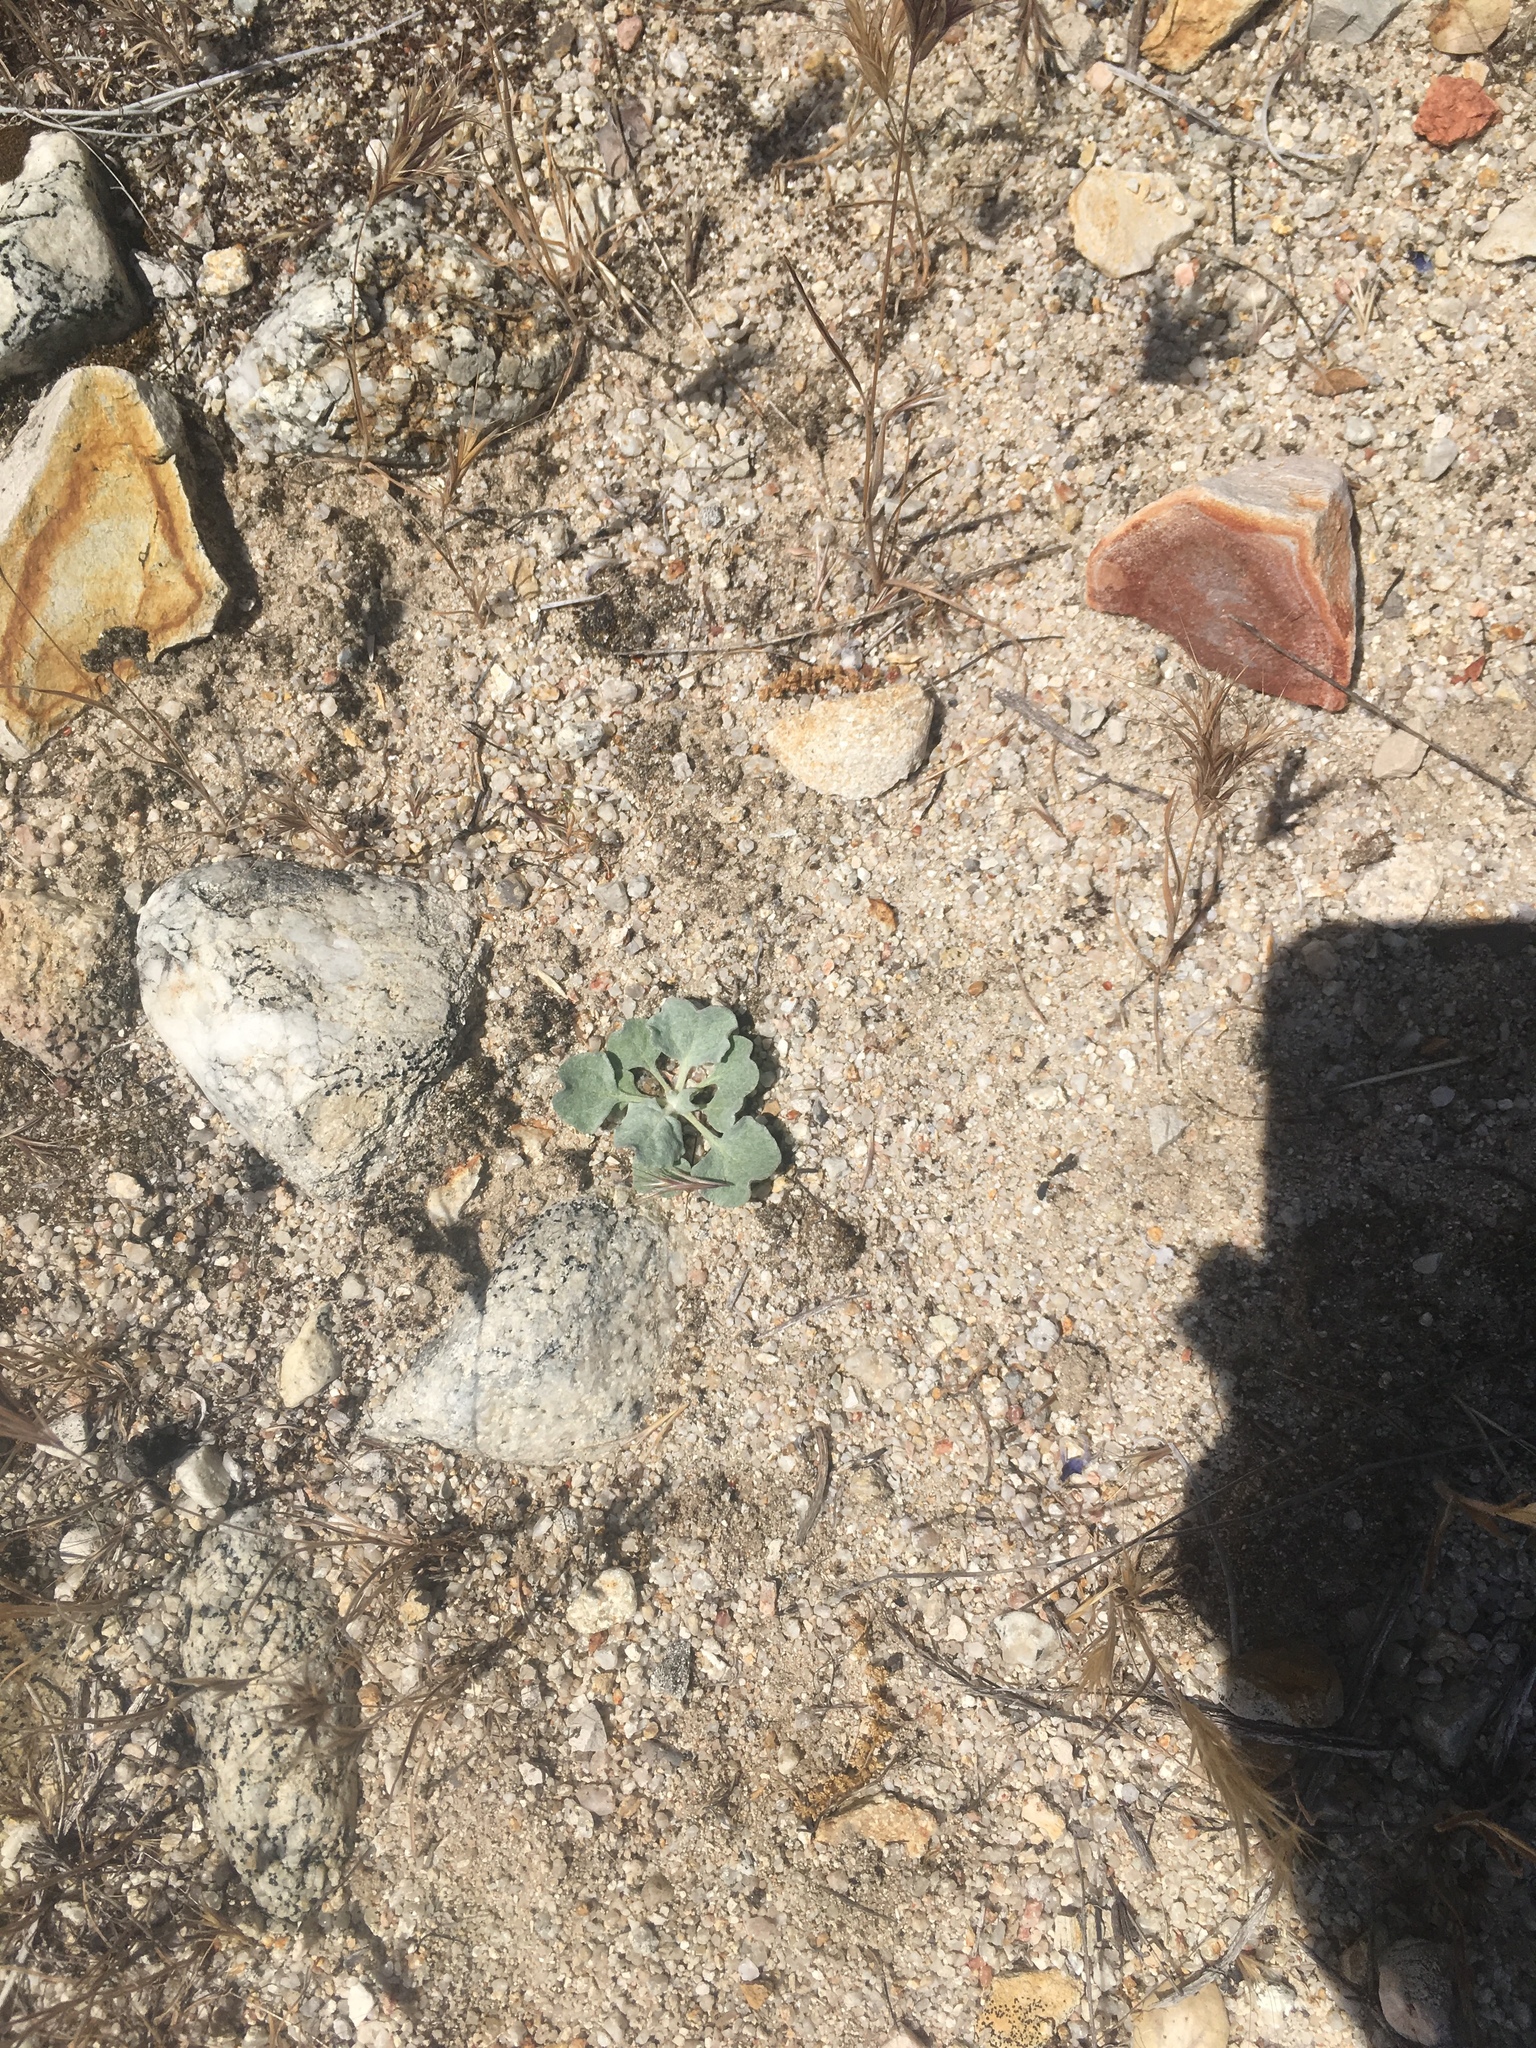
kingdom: Plantae
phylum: Tracheophyta
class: Magnoliopsida
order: Caryophyllales
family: Polygonaceae
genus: Eriogonum
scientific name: Eriogonum elegans
